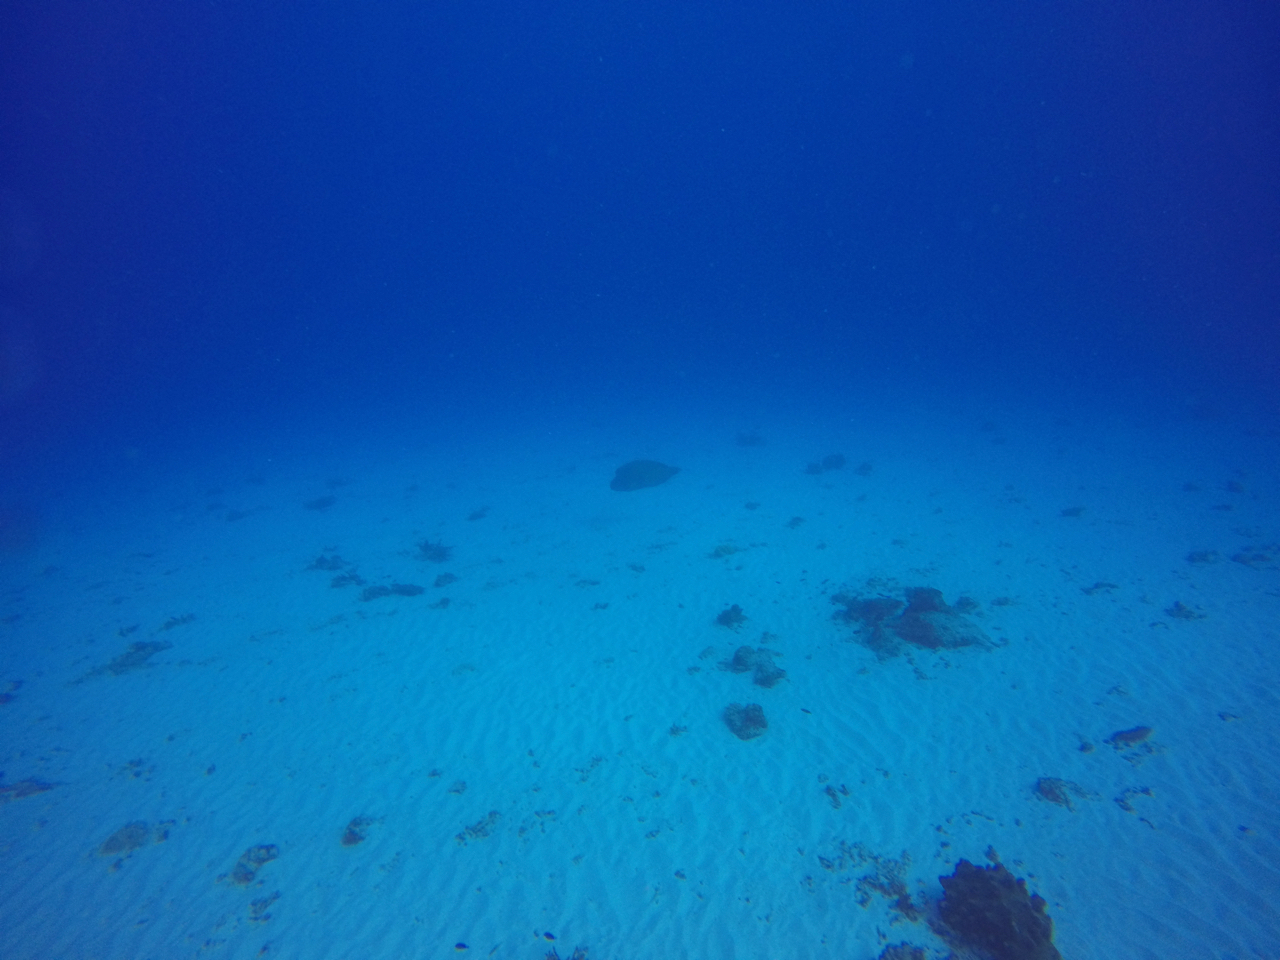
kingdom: Animalia
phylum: Chordata
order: Perciformes
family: Labridae
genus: Cheilinus
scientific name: Cheilinus undulatus
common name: Humphead wrasse
